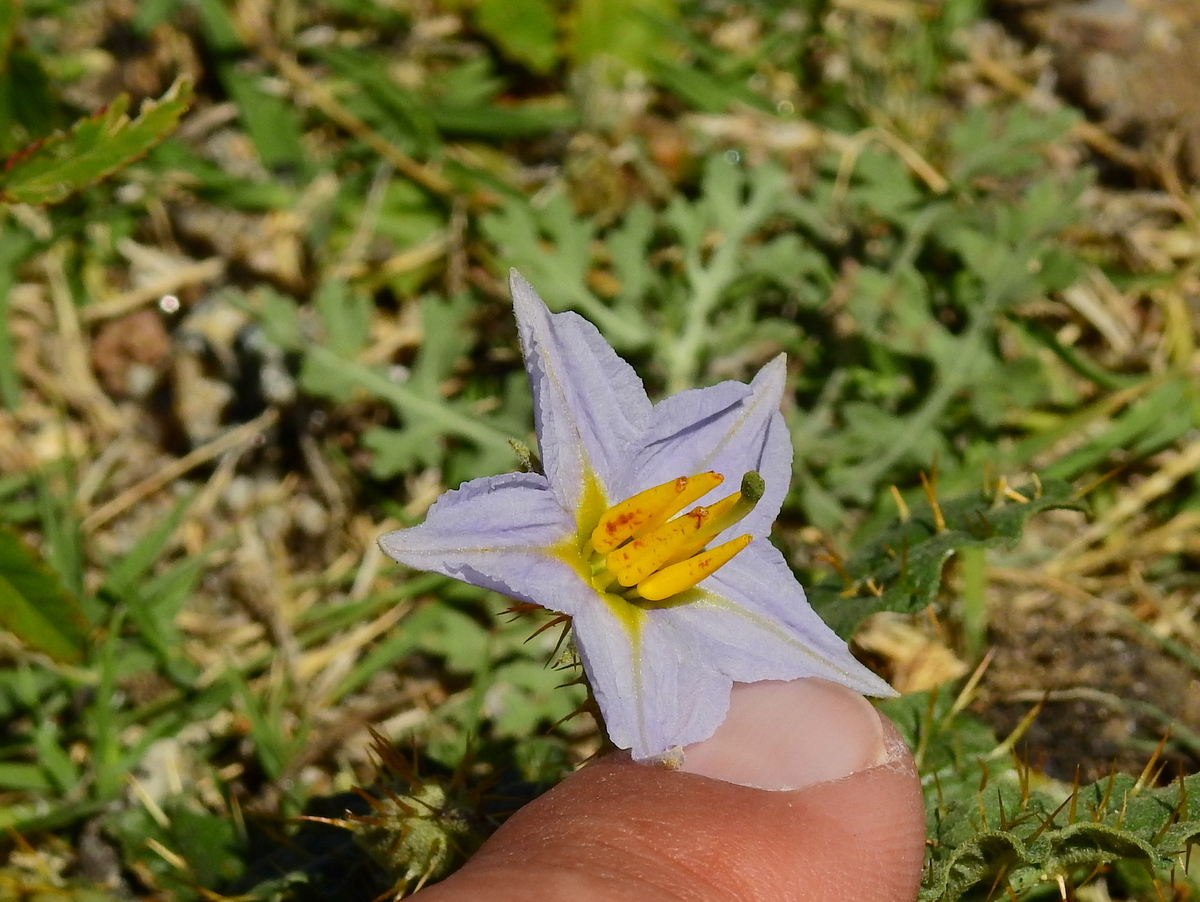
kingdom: Plantae
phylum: Tracheophyta
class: Magnoliopsida
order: Solanales
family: Solanaceae
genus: Solanum
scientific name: Solanum juvenale
